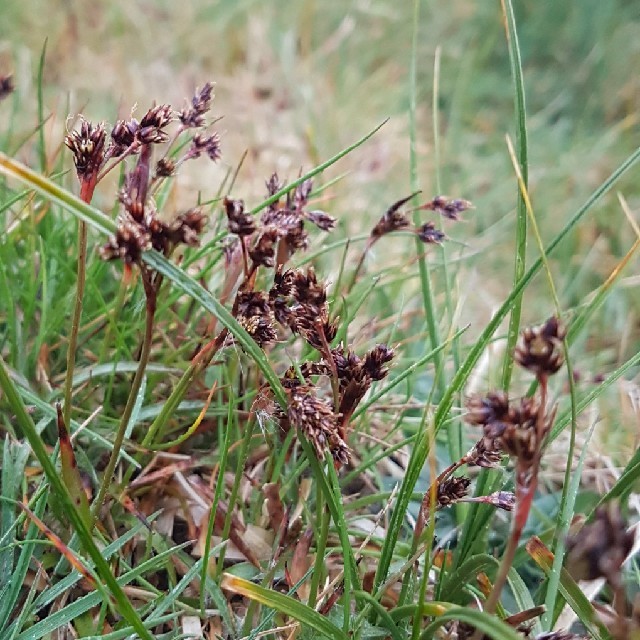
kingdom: Plantae
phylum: Tracheophyta
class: Liliopsida
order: Poales
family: Juncaceae
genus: Luzula
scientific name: Luzula campestris
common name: Field wood-rush
